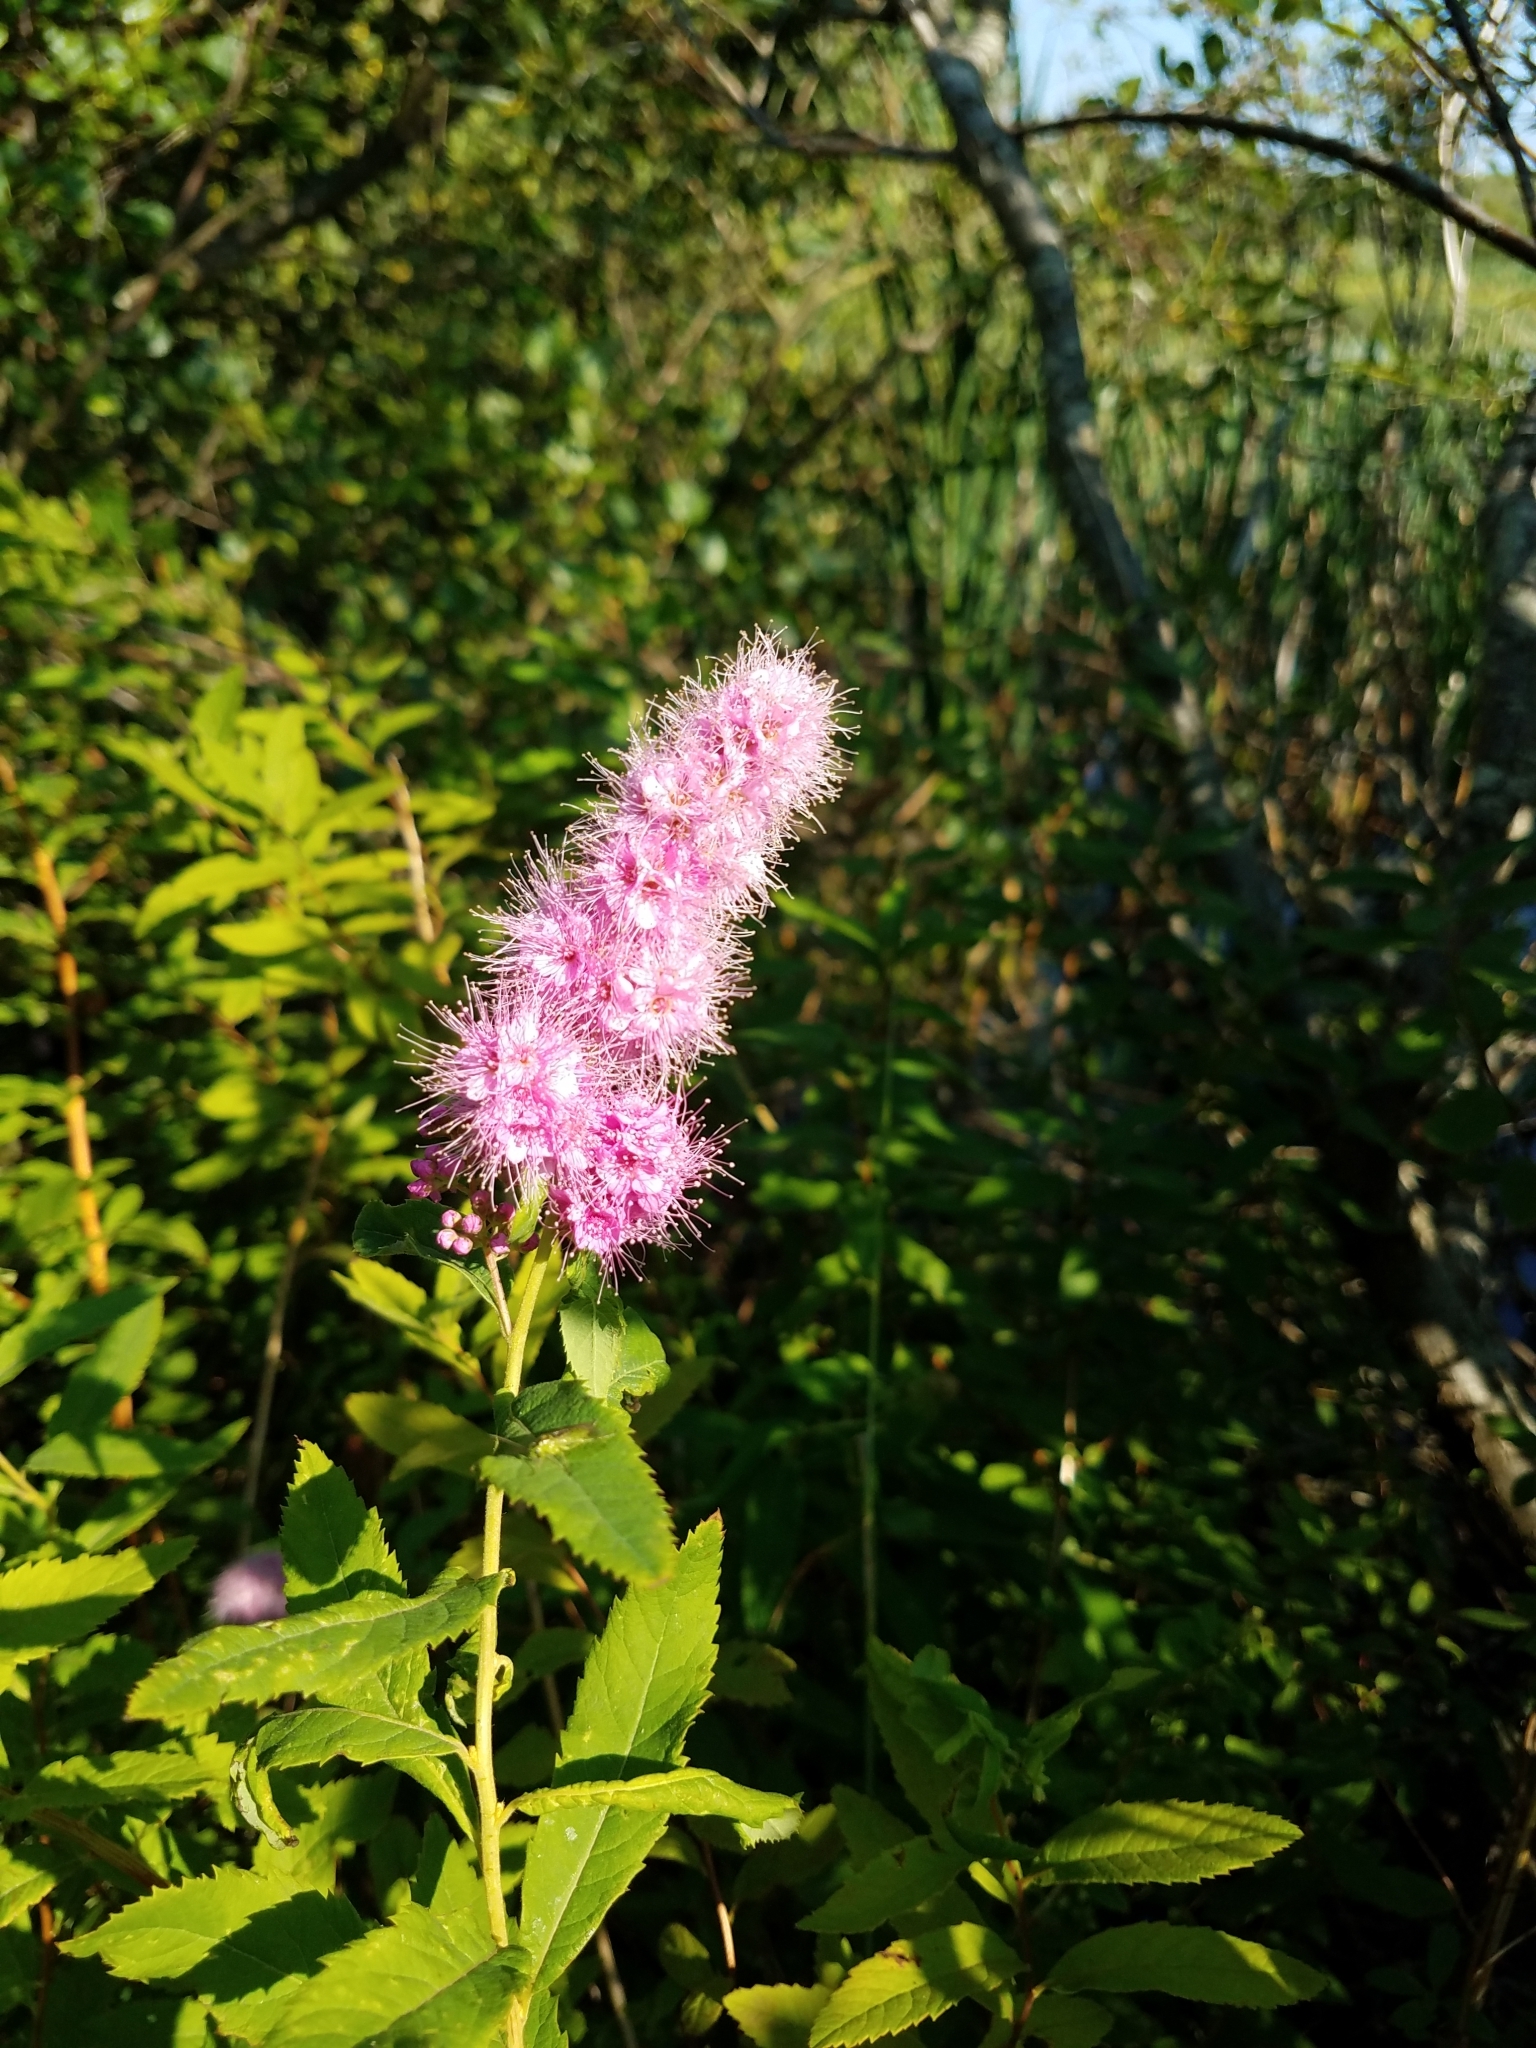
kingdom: Plantae
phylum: Tracheophyta
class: Magnoliopsida
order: Rosales
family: Rosaceae
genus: Spiraea
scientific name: Spiraea douglasii
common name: Steeplebush
